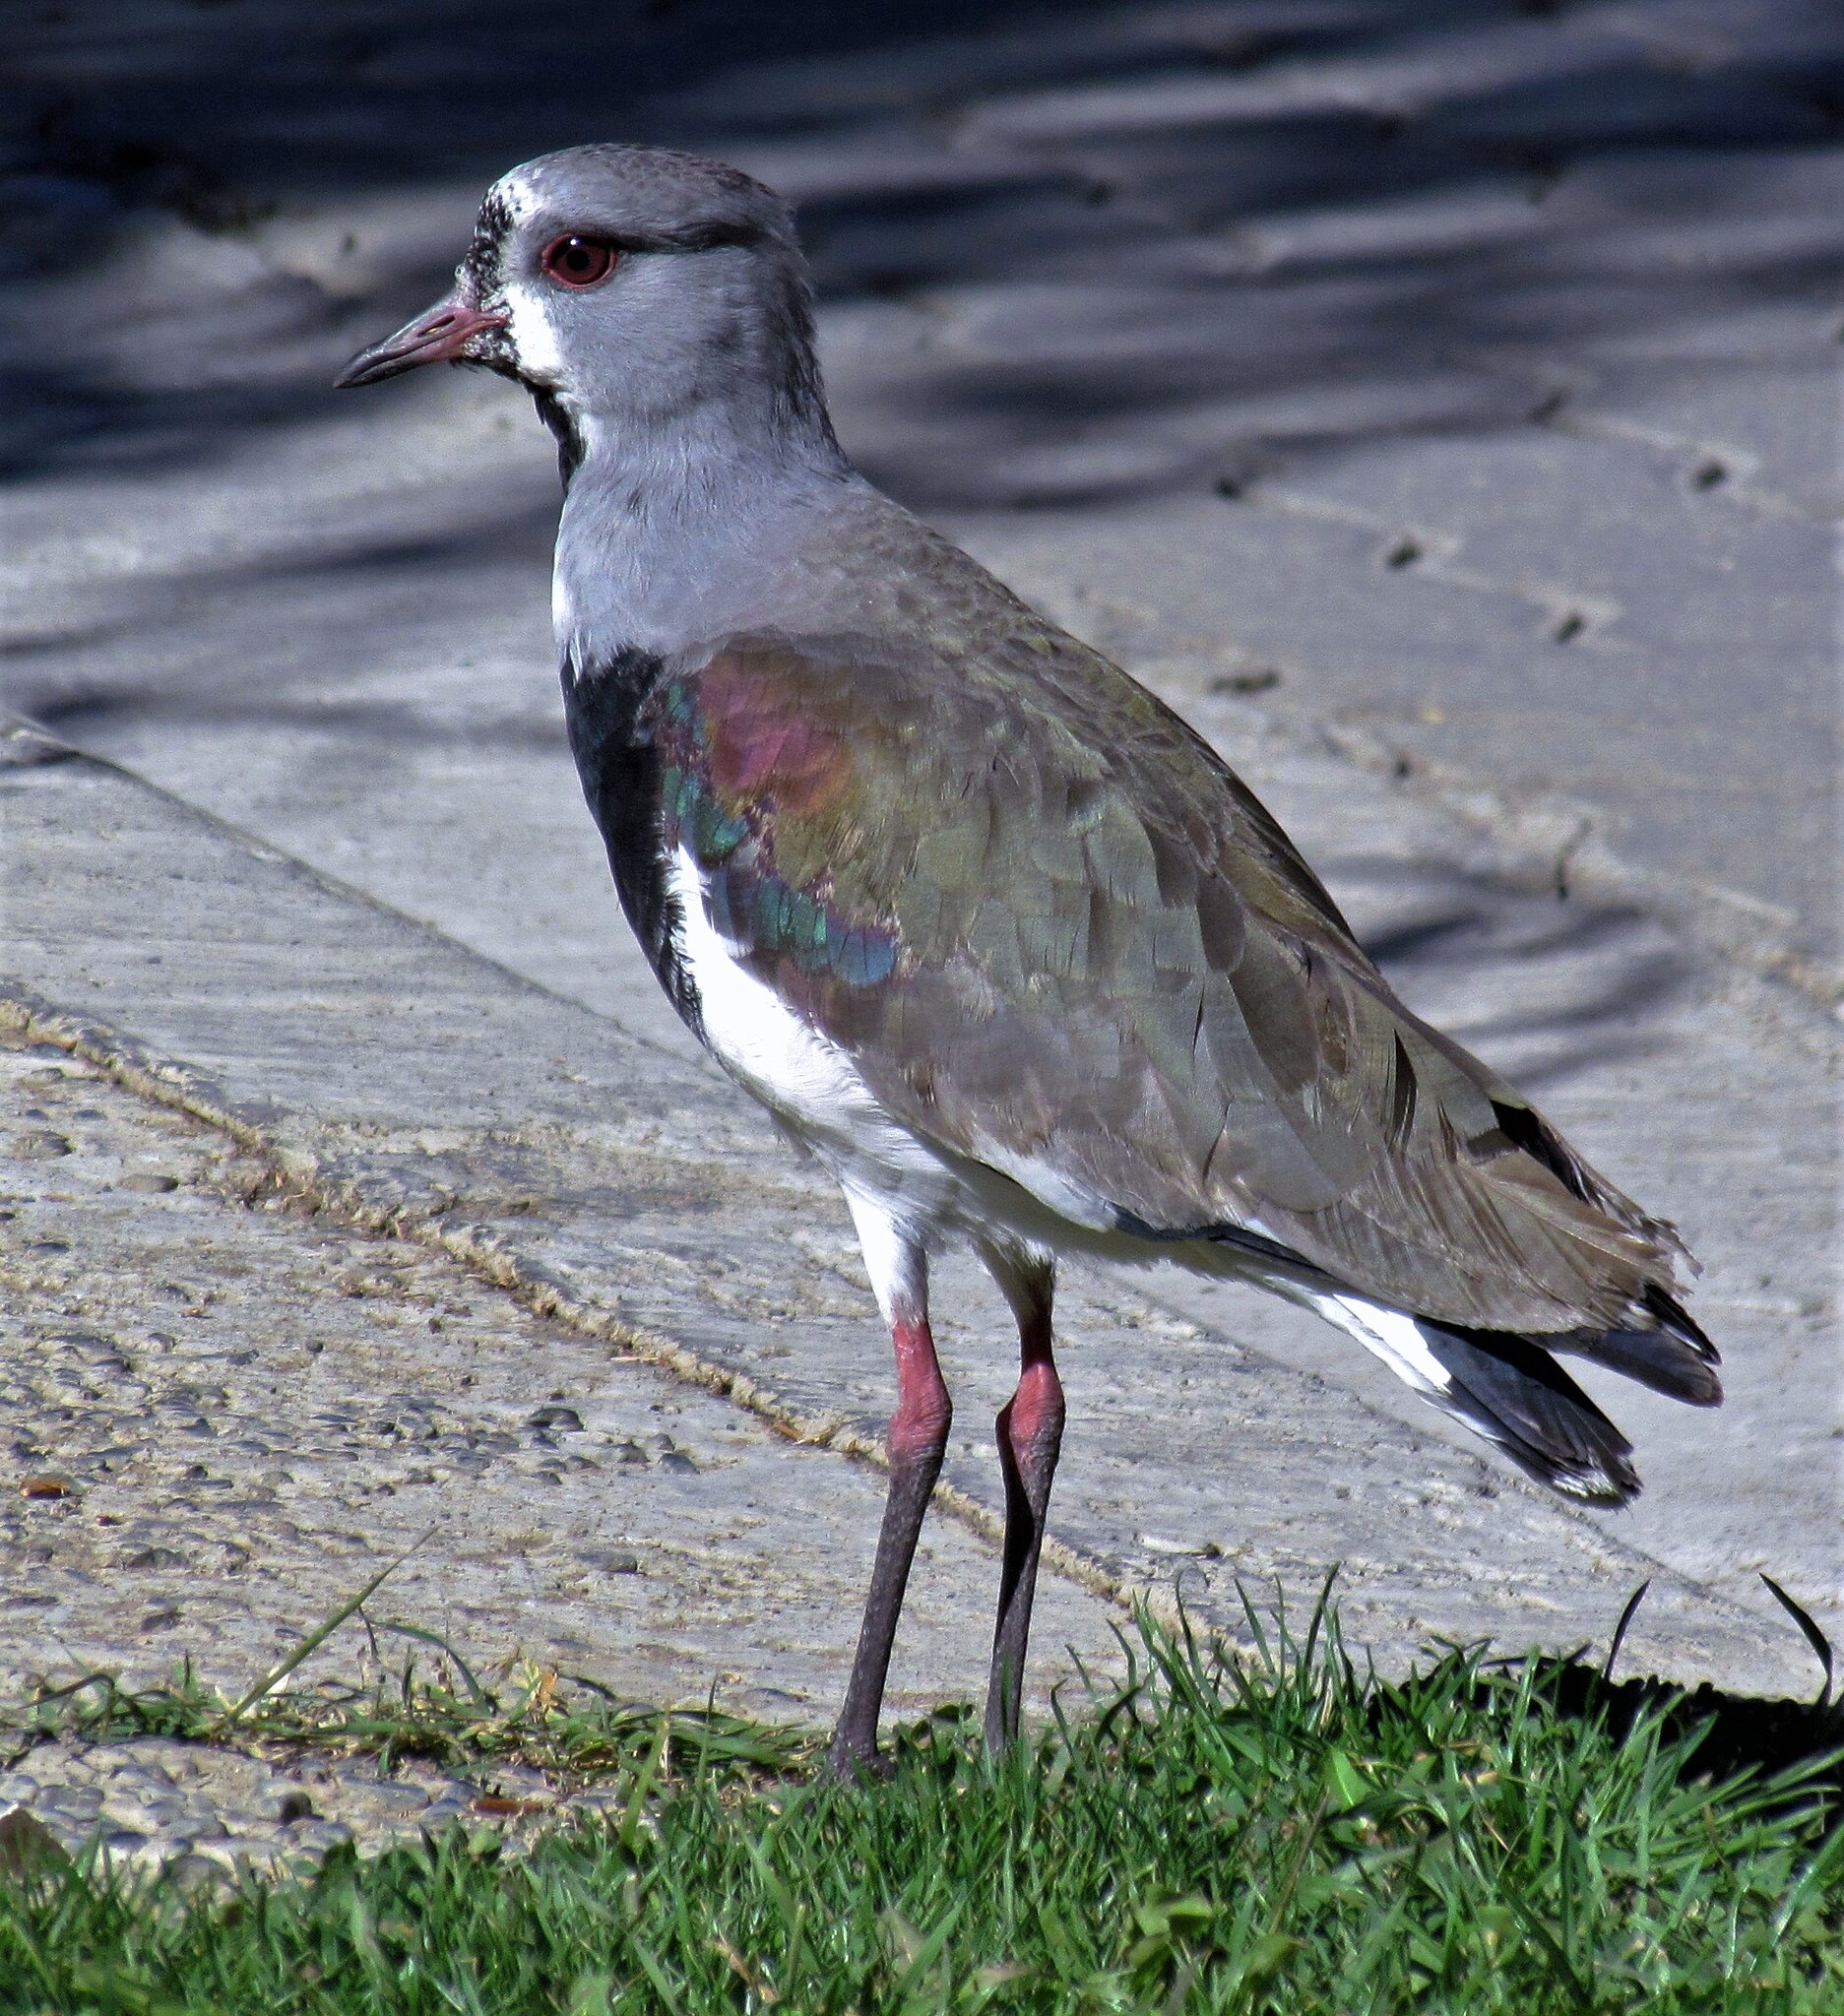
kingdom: Animalia
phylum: Chordata
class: Aves
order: Charadriiformes
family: Charadriidae
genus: Vanellus
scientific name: Vanellus chilensis
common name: Southern lapwing
